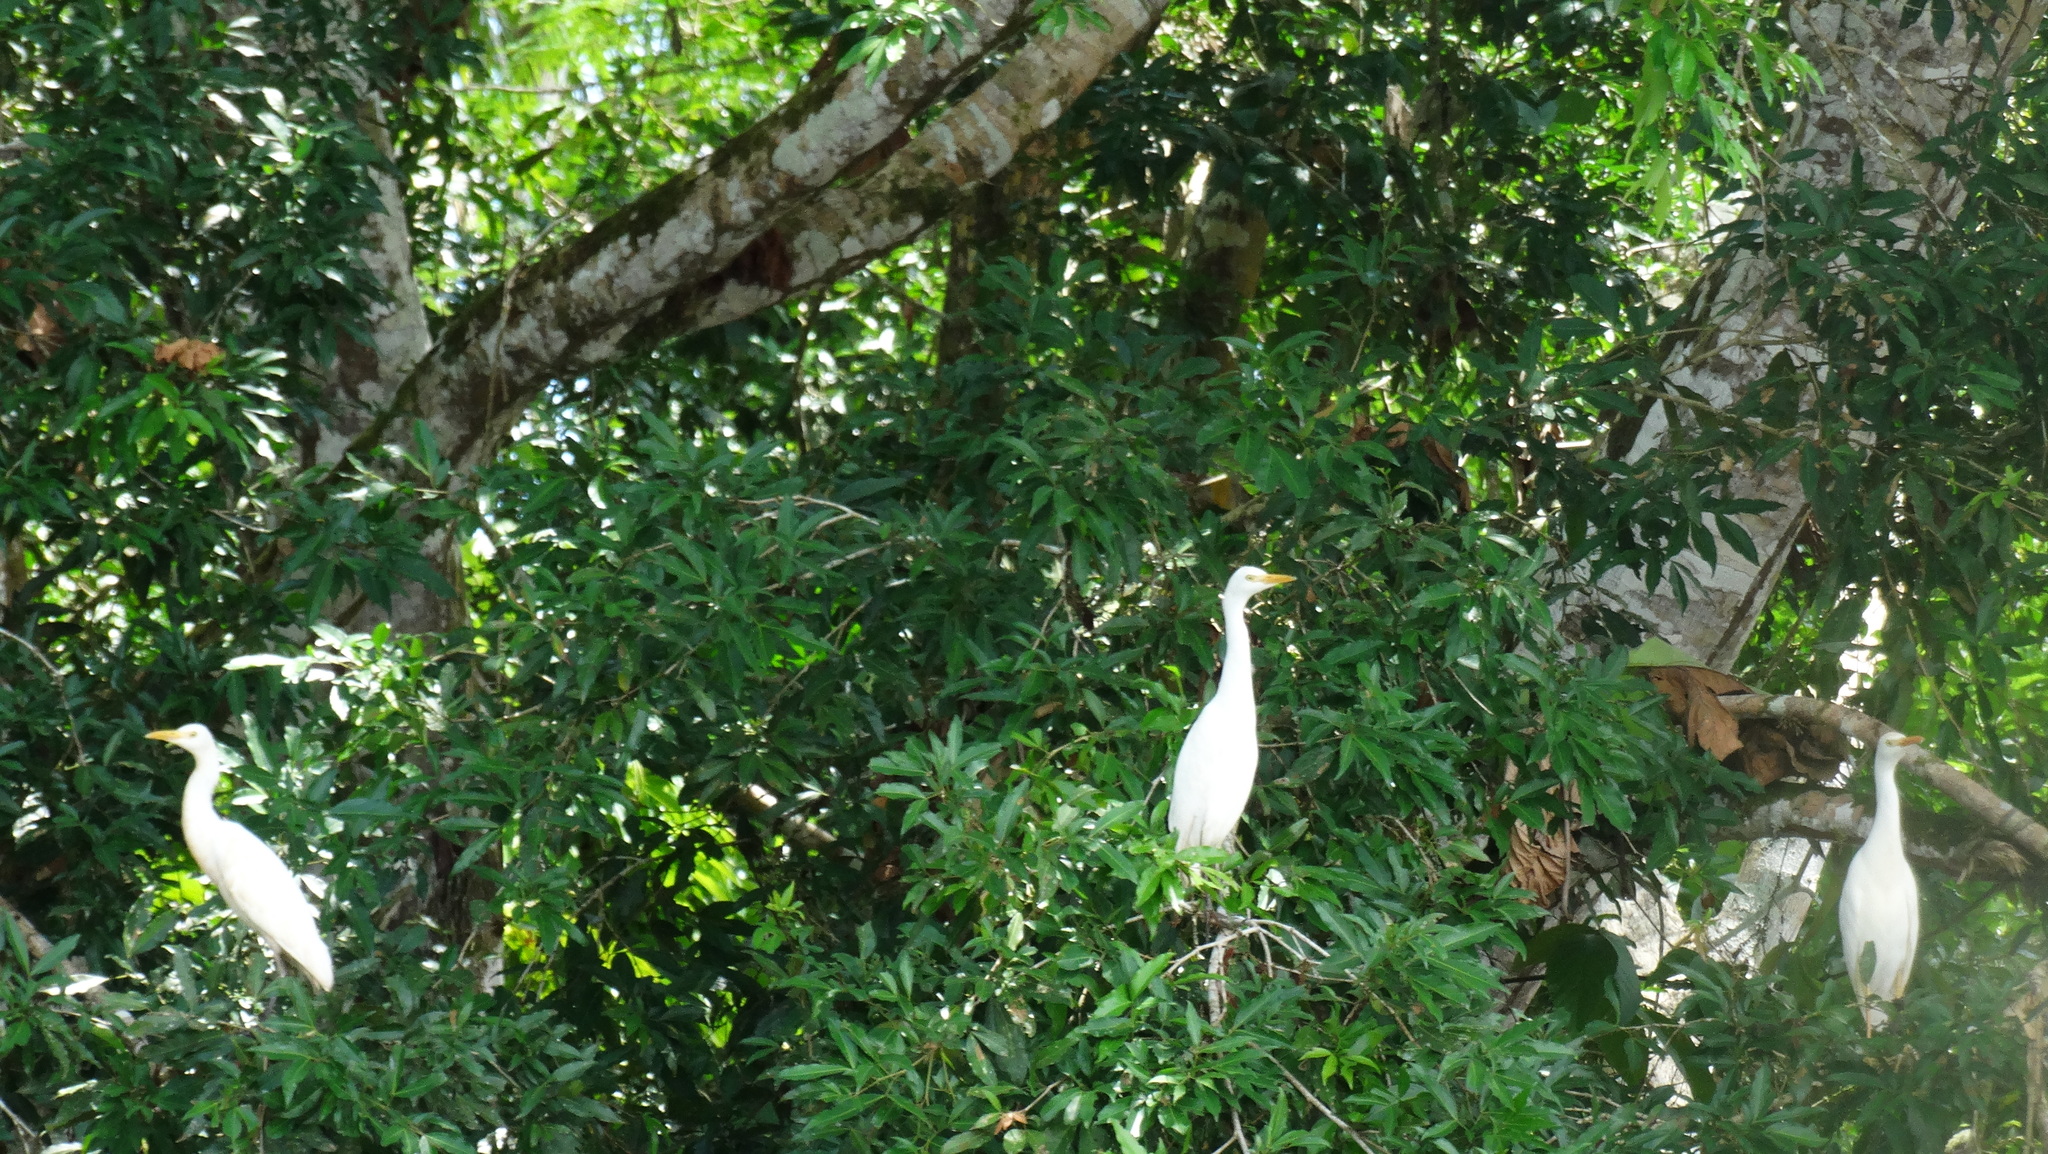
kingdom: Animalia
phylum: Chordata
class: Aves
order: Pelecaniformes
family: Ardeidae
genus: Bubulcus
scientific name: Bubulcus ibis
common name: Cattle egret
